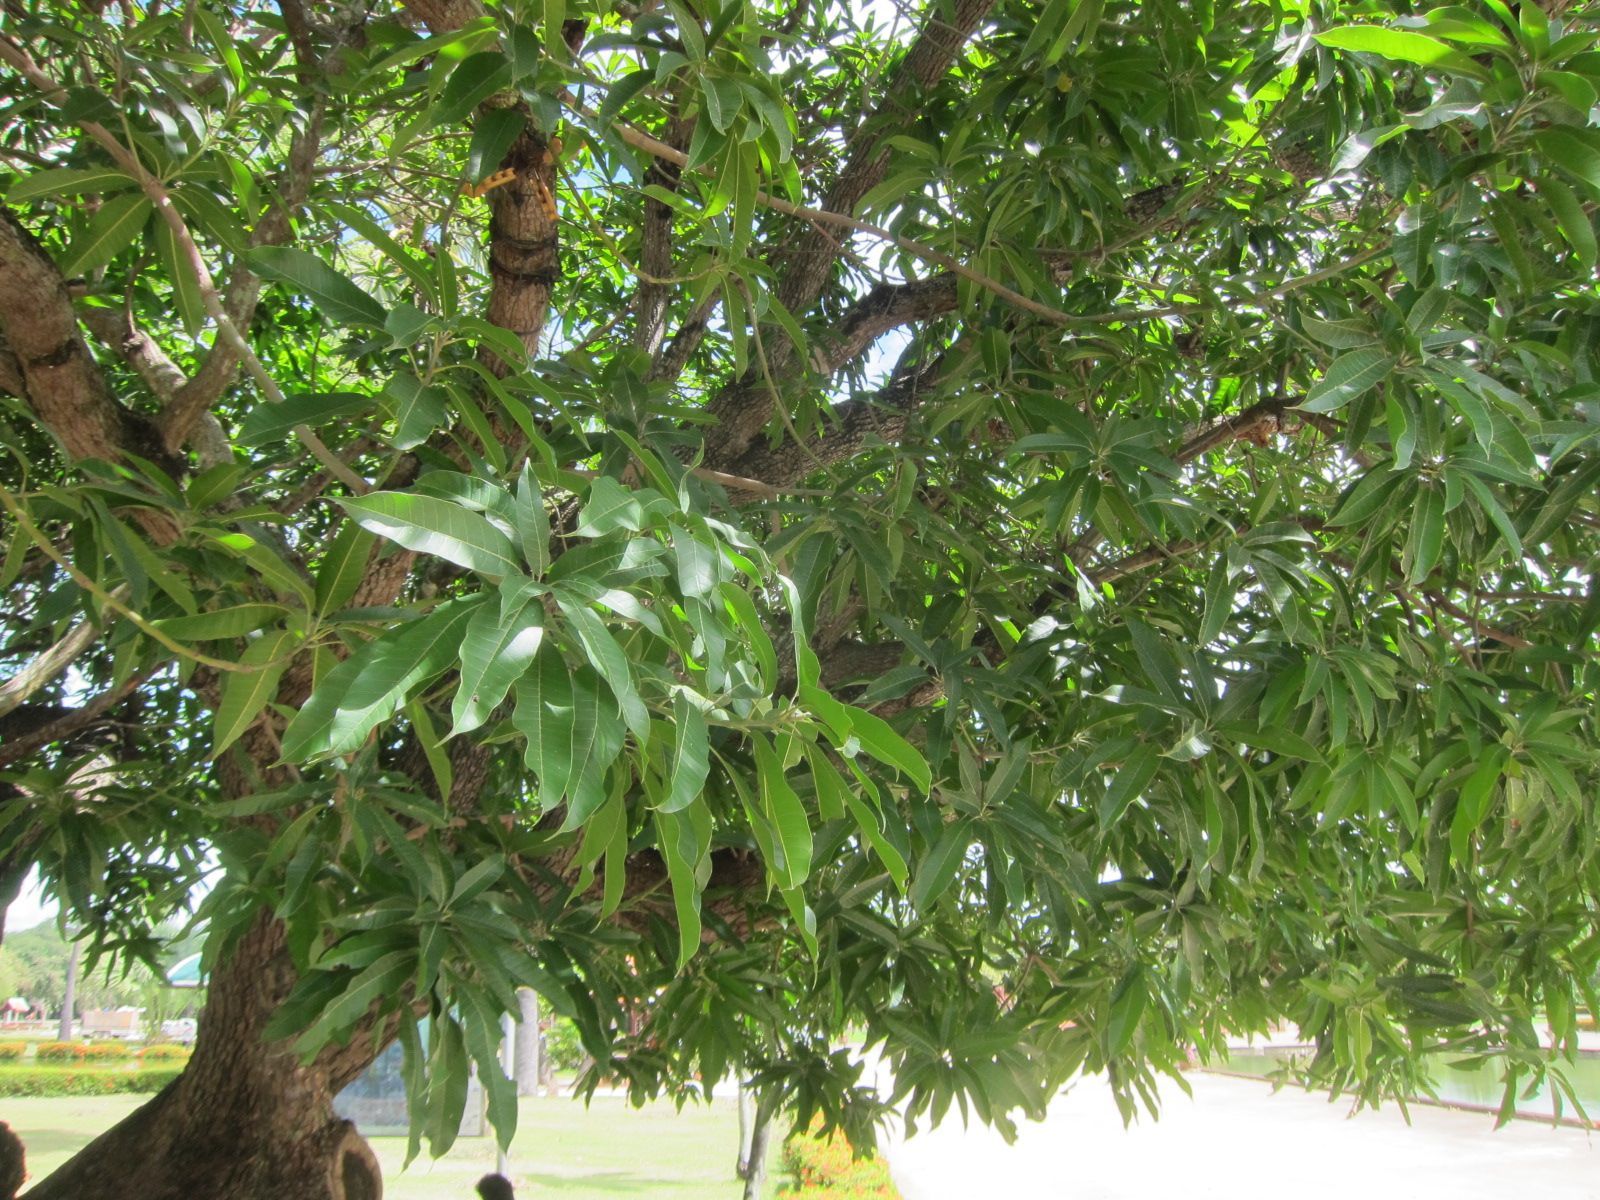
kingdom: Plantae
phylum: Tracheophyta
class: Magnoliopsida
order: Sapindales
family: Anacardiaceae
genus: Mangifera
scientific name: Mangifera indica
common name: Mango
